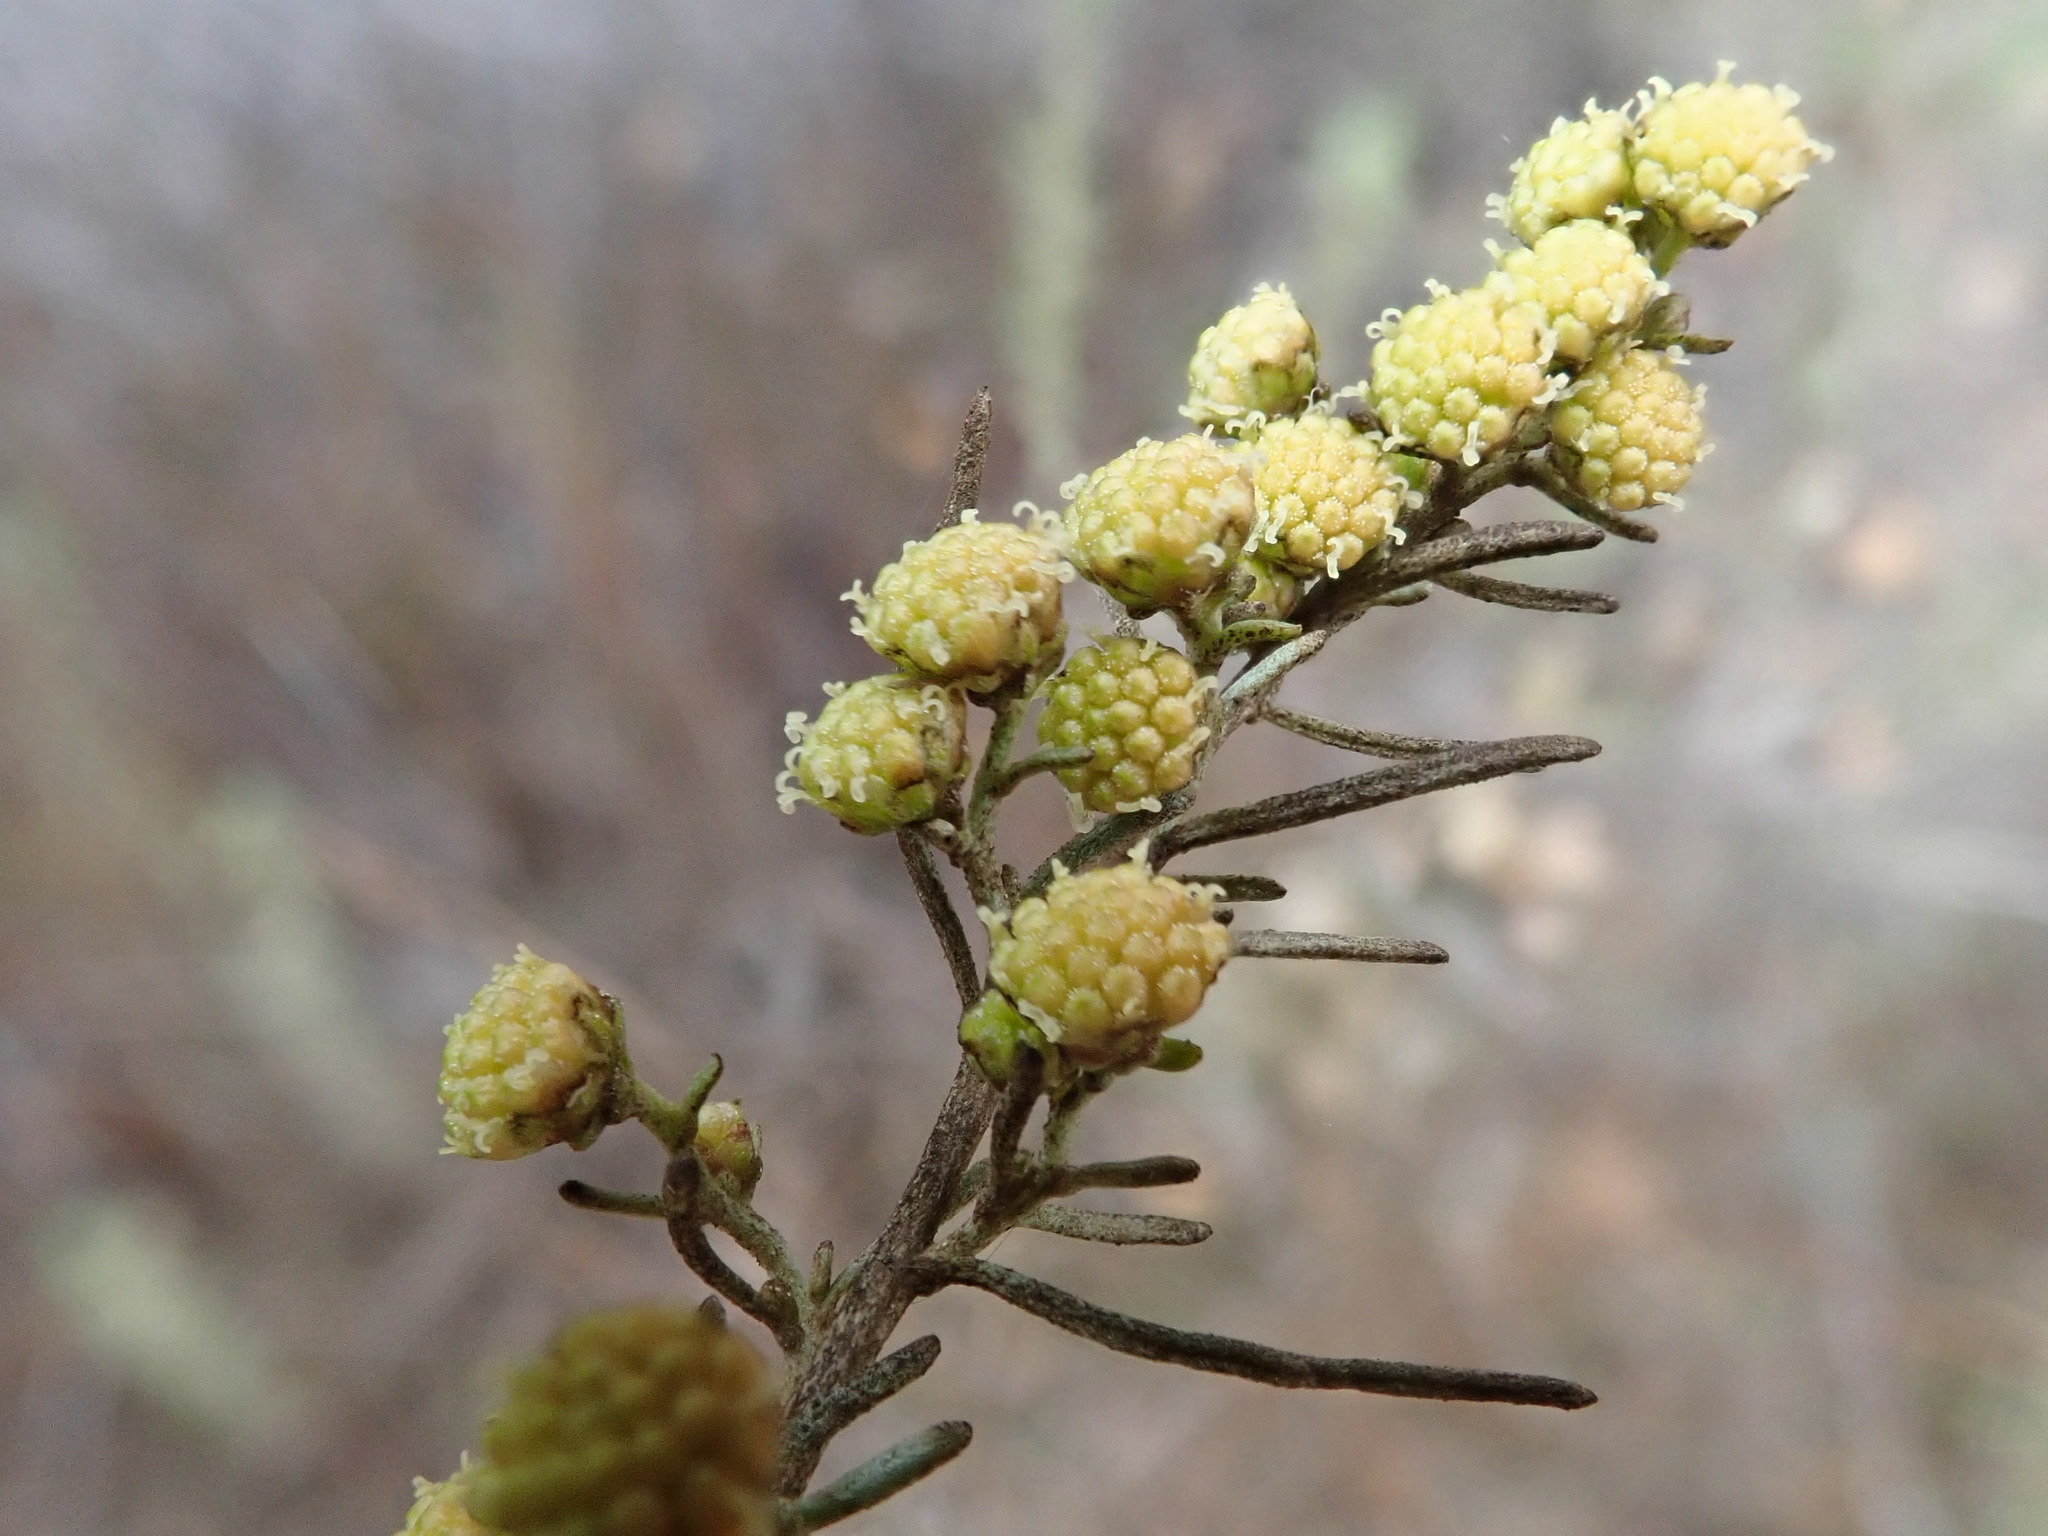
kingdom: Plantae
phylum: Tracheophyta
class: Magnoliopsida
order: Asterales
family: Asteraceae
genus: Artemisia
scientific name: Artemisia californica
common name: California sagebrush
